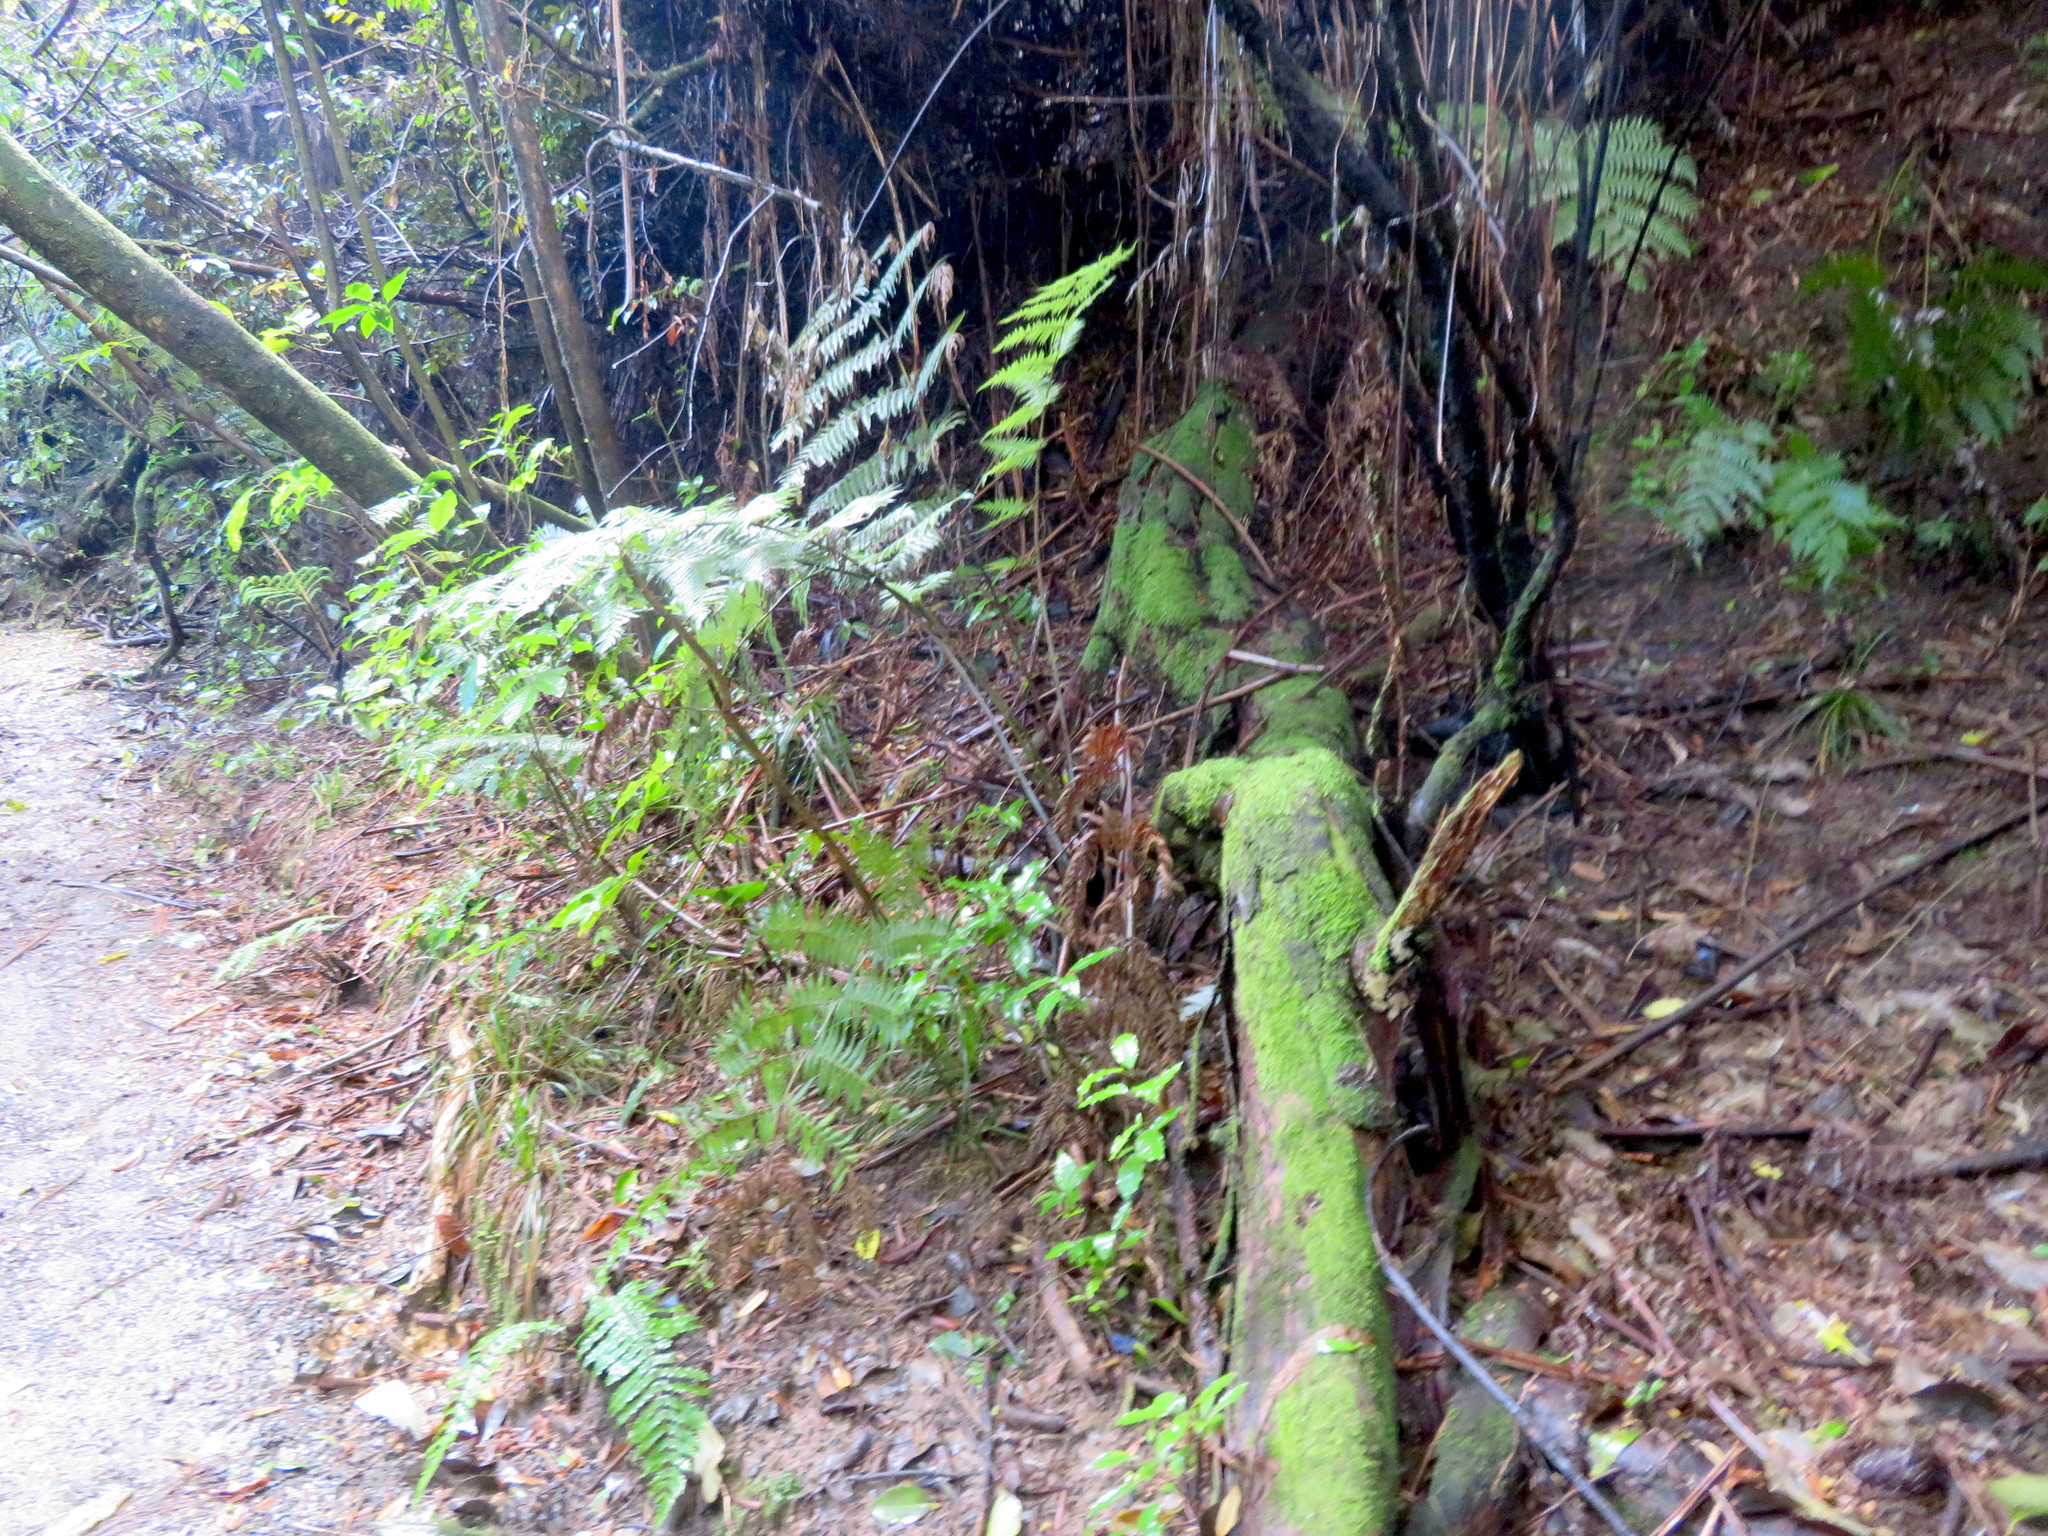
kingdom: Plantae
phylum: Tracheophyta
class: Polypodiopsida
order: Cyatheales
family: Cyatheaceae
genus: Alsophila
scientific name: Alsophila dealbata
